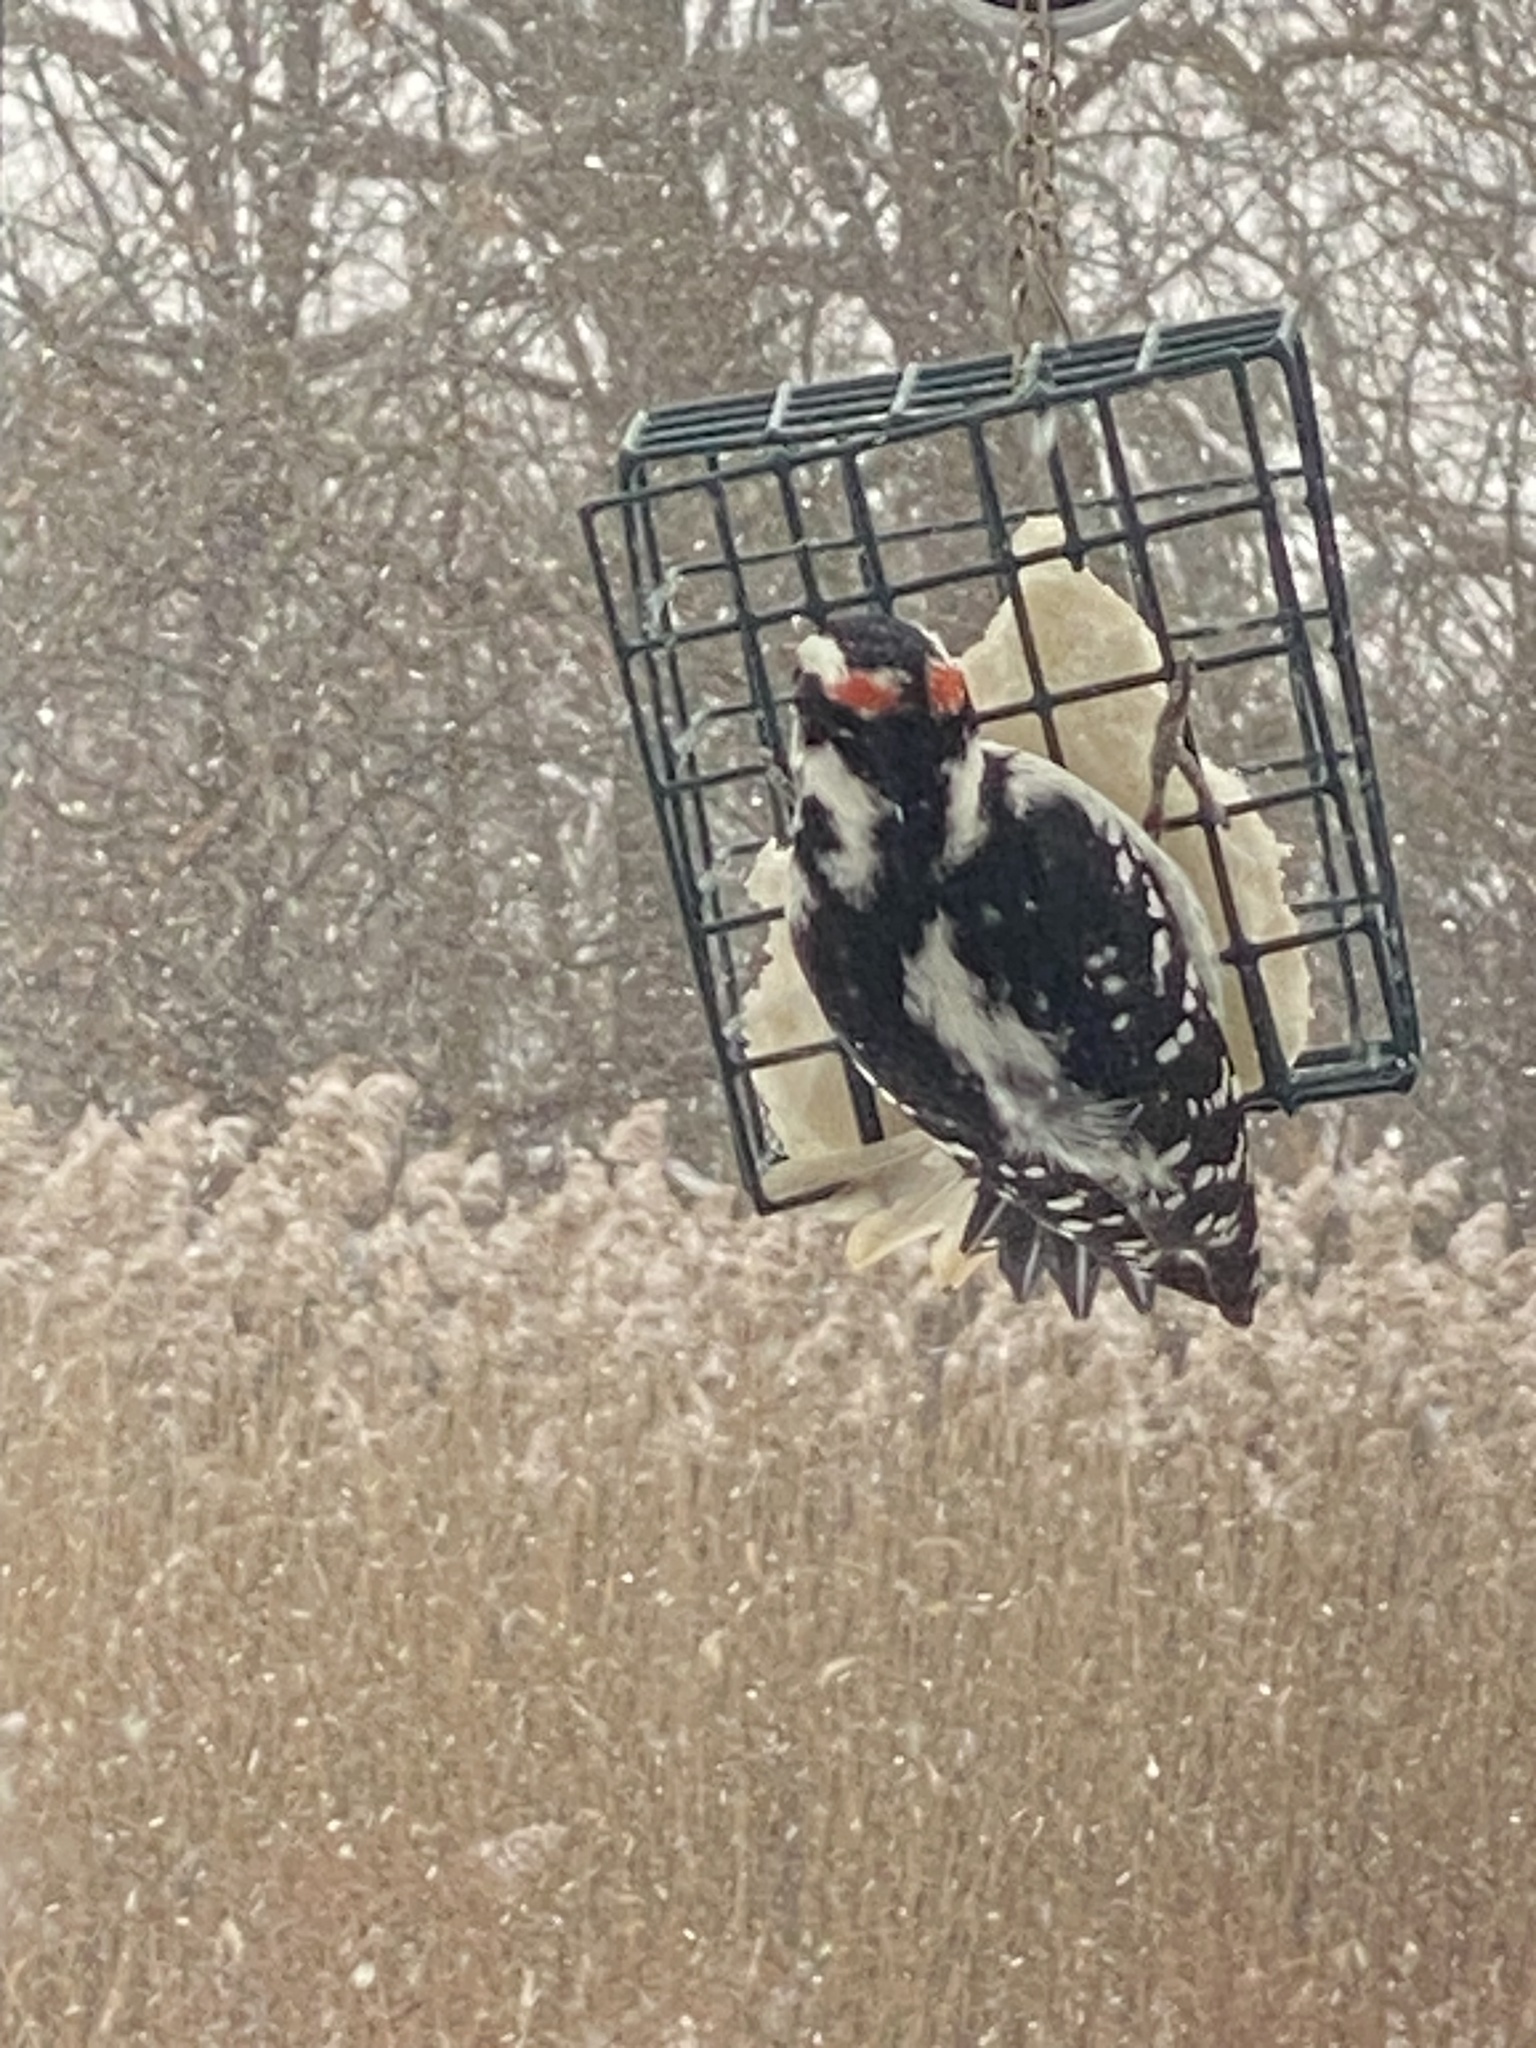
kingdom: Animalia
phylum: Chordata
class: Aves
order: Piciformes
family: Picidae
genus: Dryobates
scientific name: Dryobates pubescens
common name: Downy woodpecker
